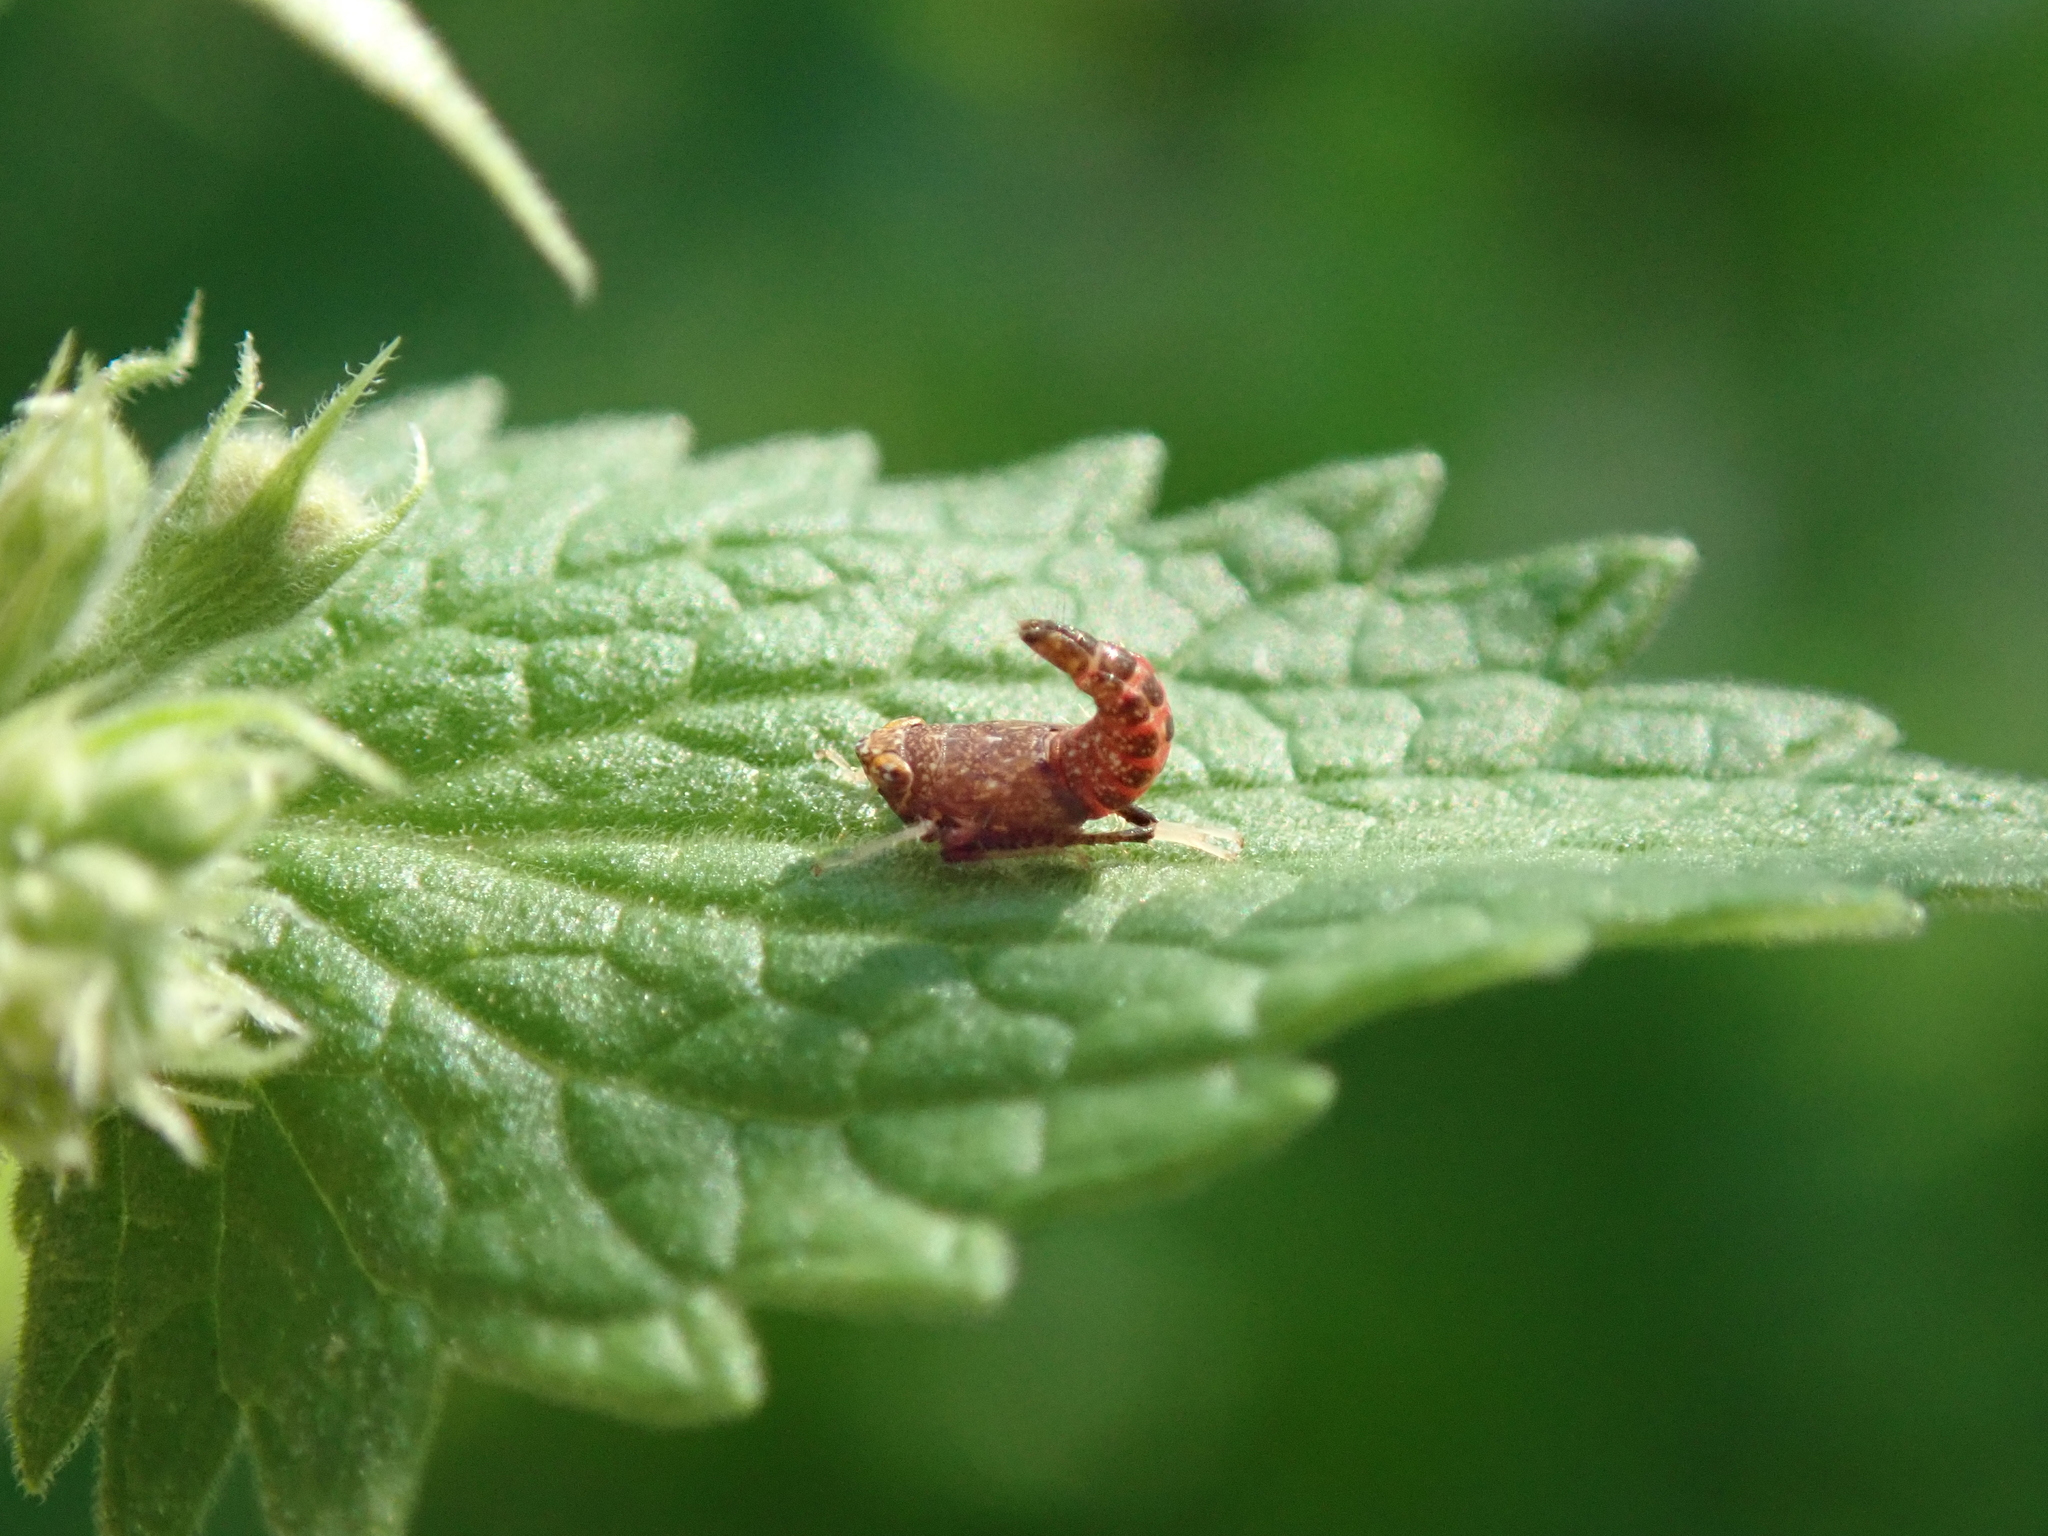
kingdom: Animalia
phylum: Arthropoda
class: Insecta
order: Hemiptera
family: Cicadellidae
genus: Orientus
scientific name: Orientus ishidae
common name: Japanese leafhopper
